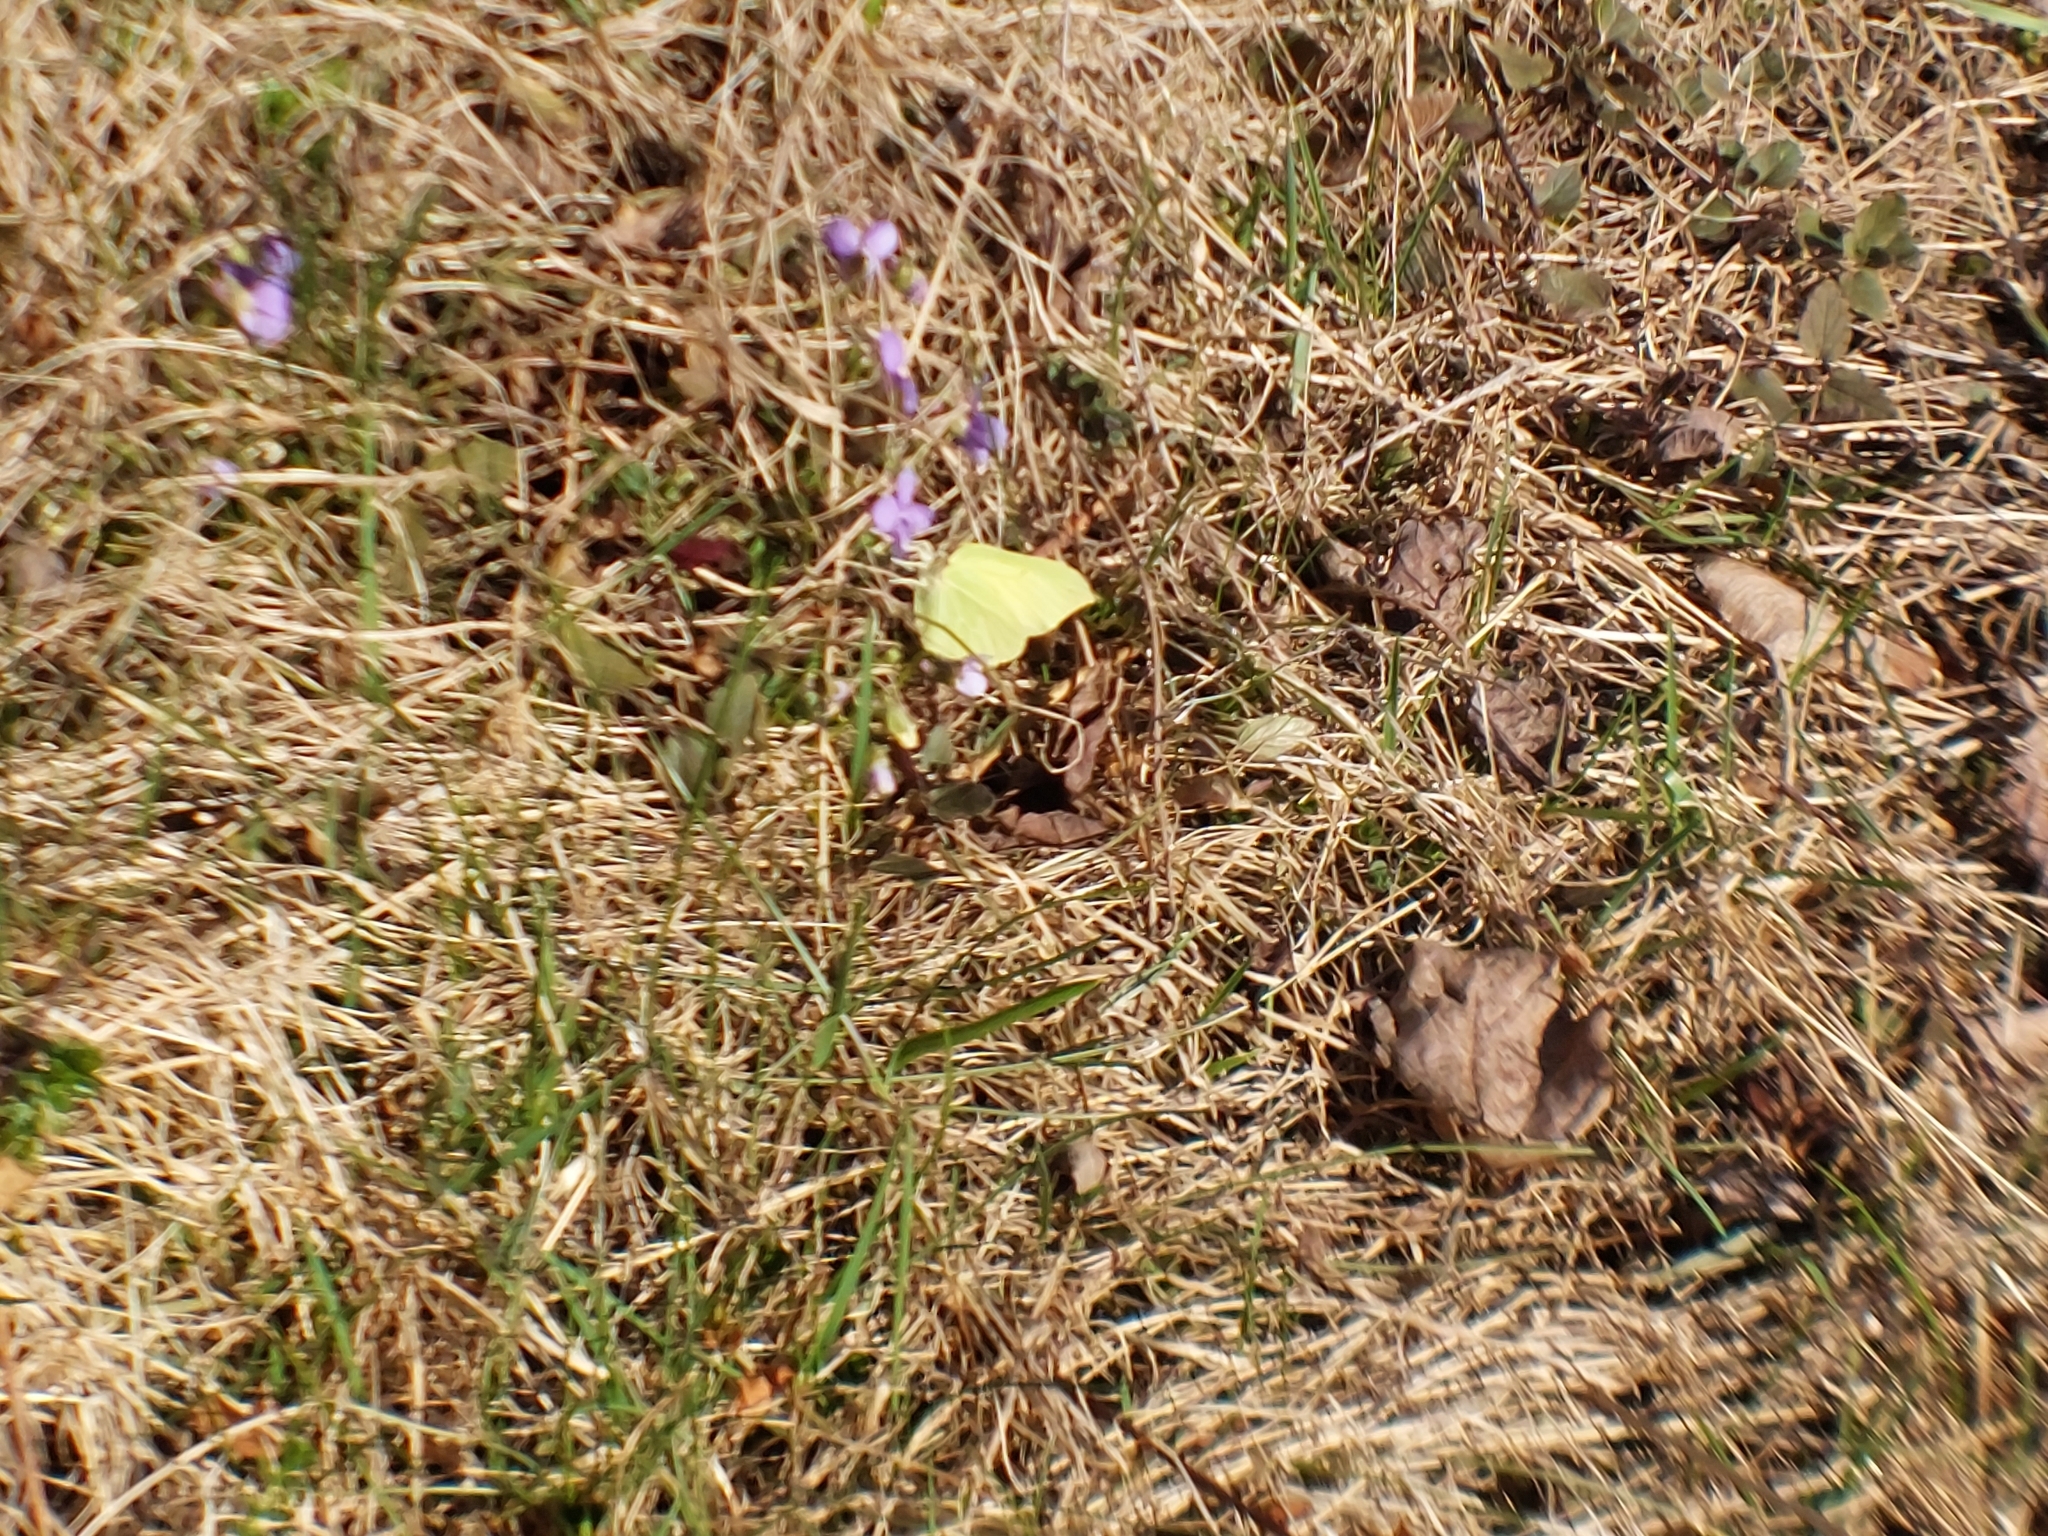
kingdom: Animalia
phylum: Arthropoda
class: Insecta
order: Lepidoptera
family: Pieridae
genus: Gonepteryx
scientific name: Gonepteryx rhamni
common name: Brimstone
